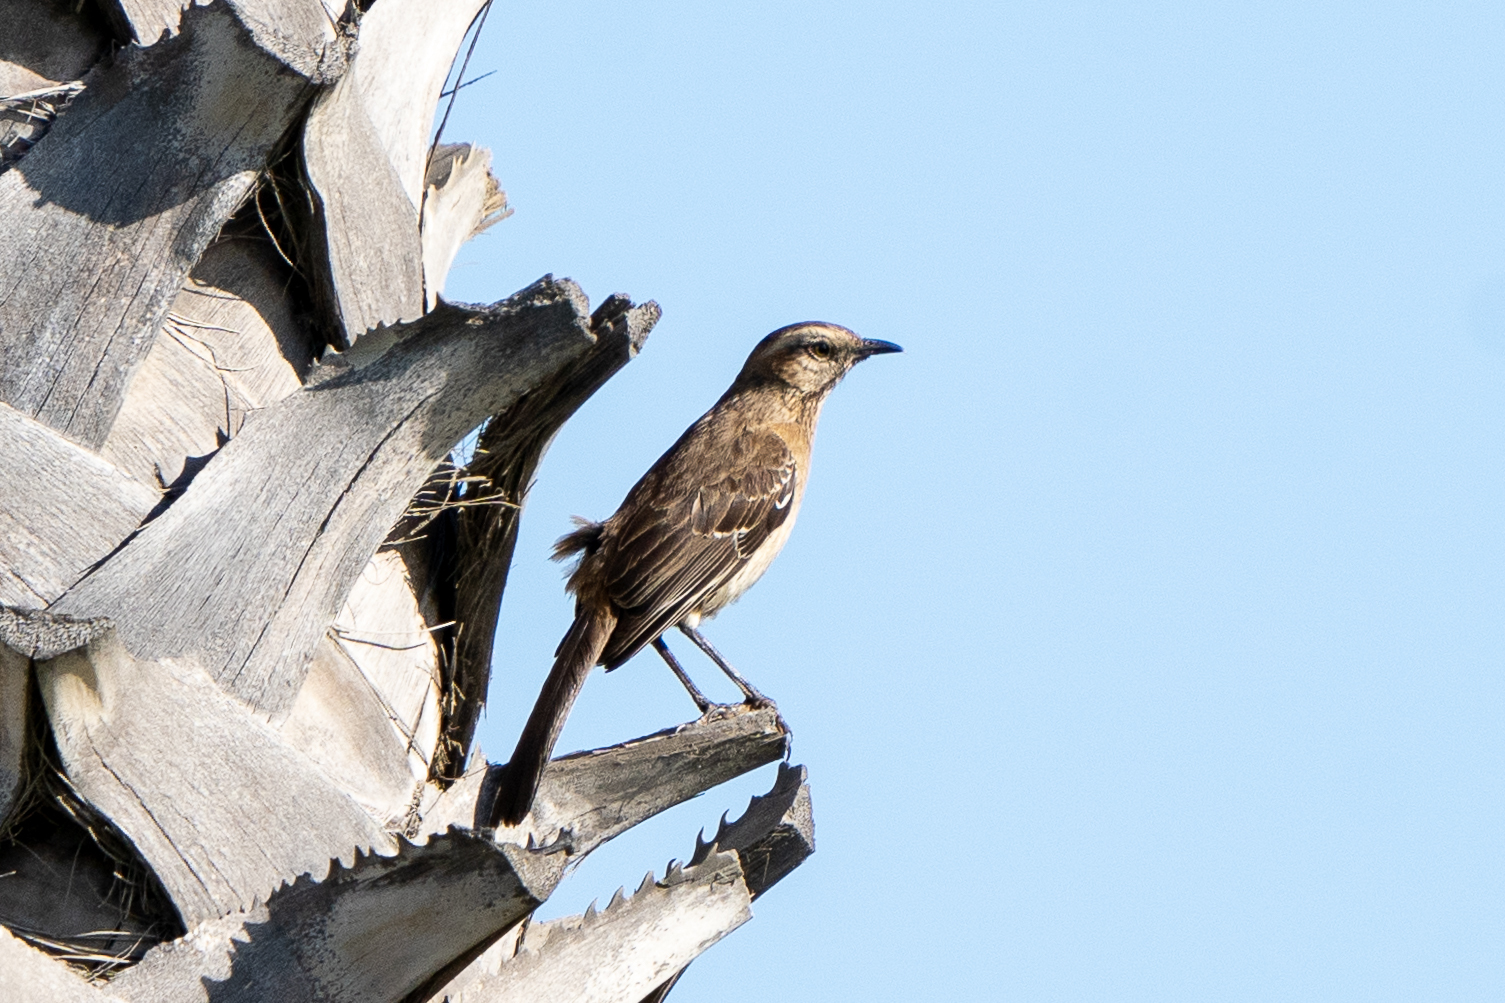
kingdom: Animalia
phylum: Chordata
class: Aves
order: Passeriformes
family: Mimidae
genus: Mimus
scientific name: Mimus thenca
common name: Chilean mockingbird
